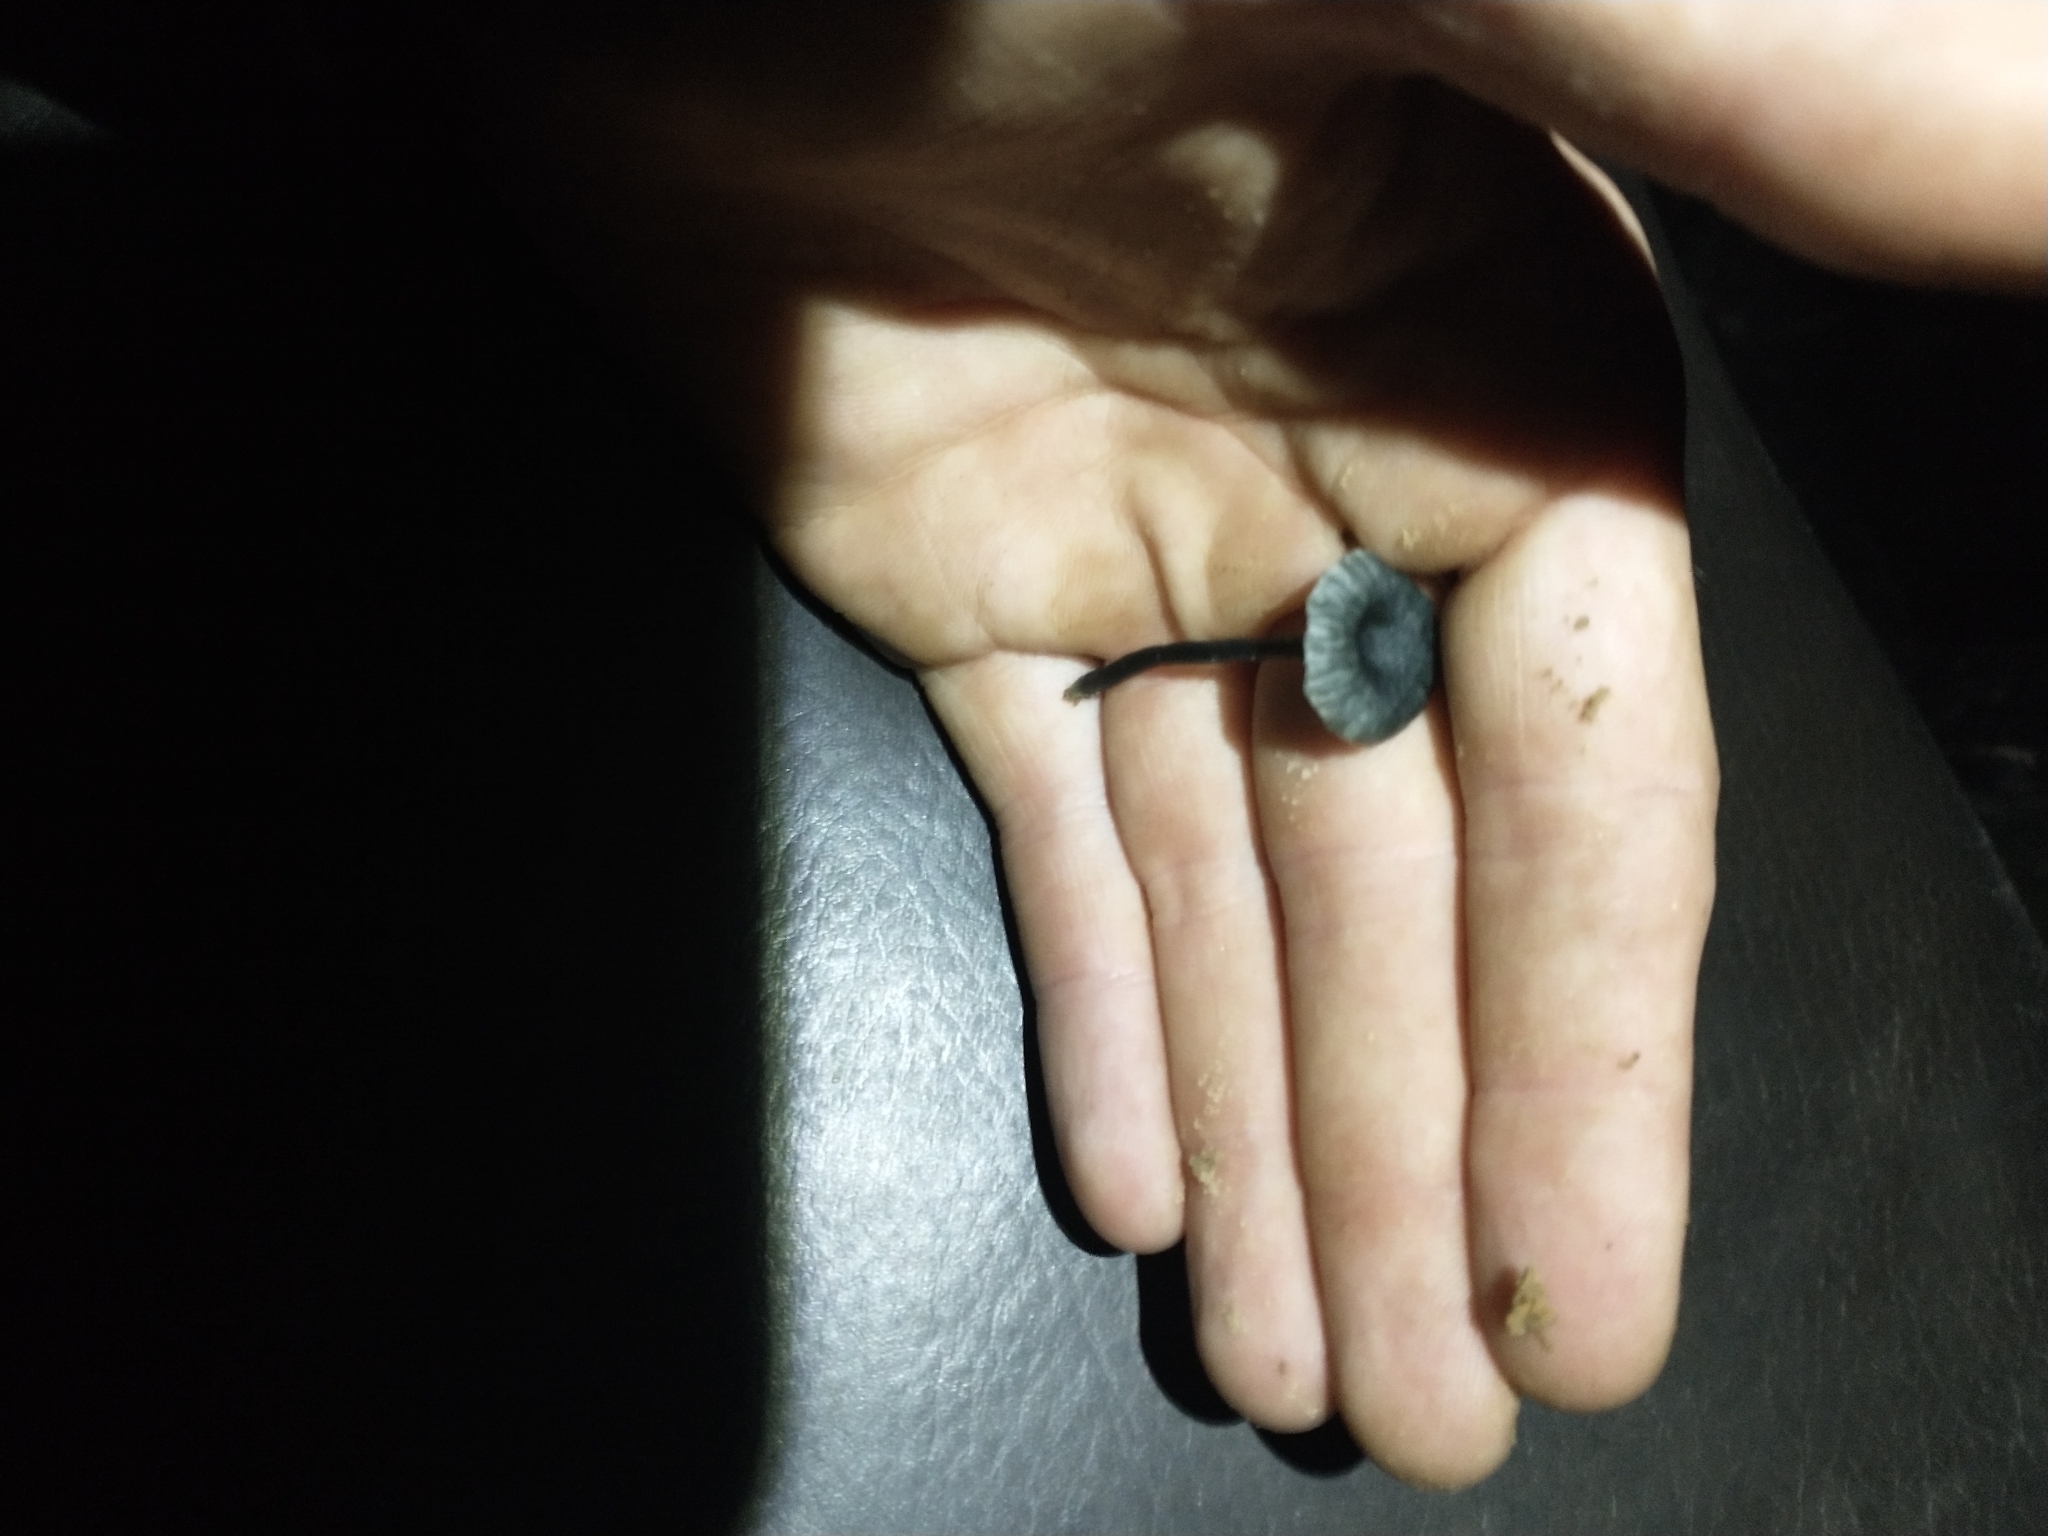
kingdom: Fungi
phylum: Basidiomycota
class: Agaricomycetes
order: Agaricales
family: Hygrophoraceae
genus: Arrhenia
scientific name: Arrhenia chlorocyanea
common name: Verdigris navel
